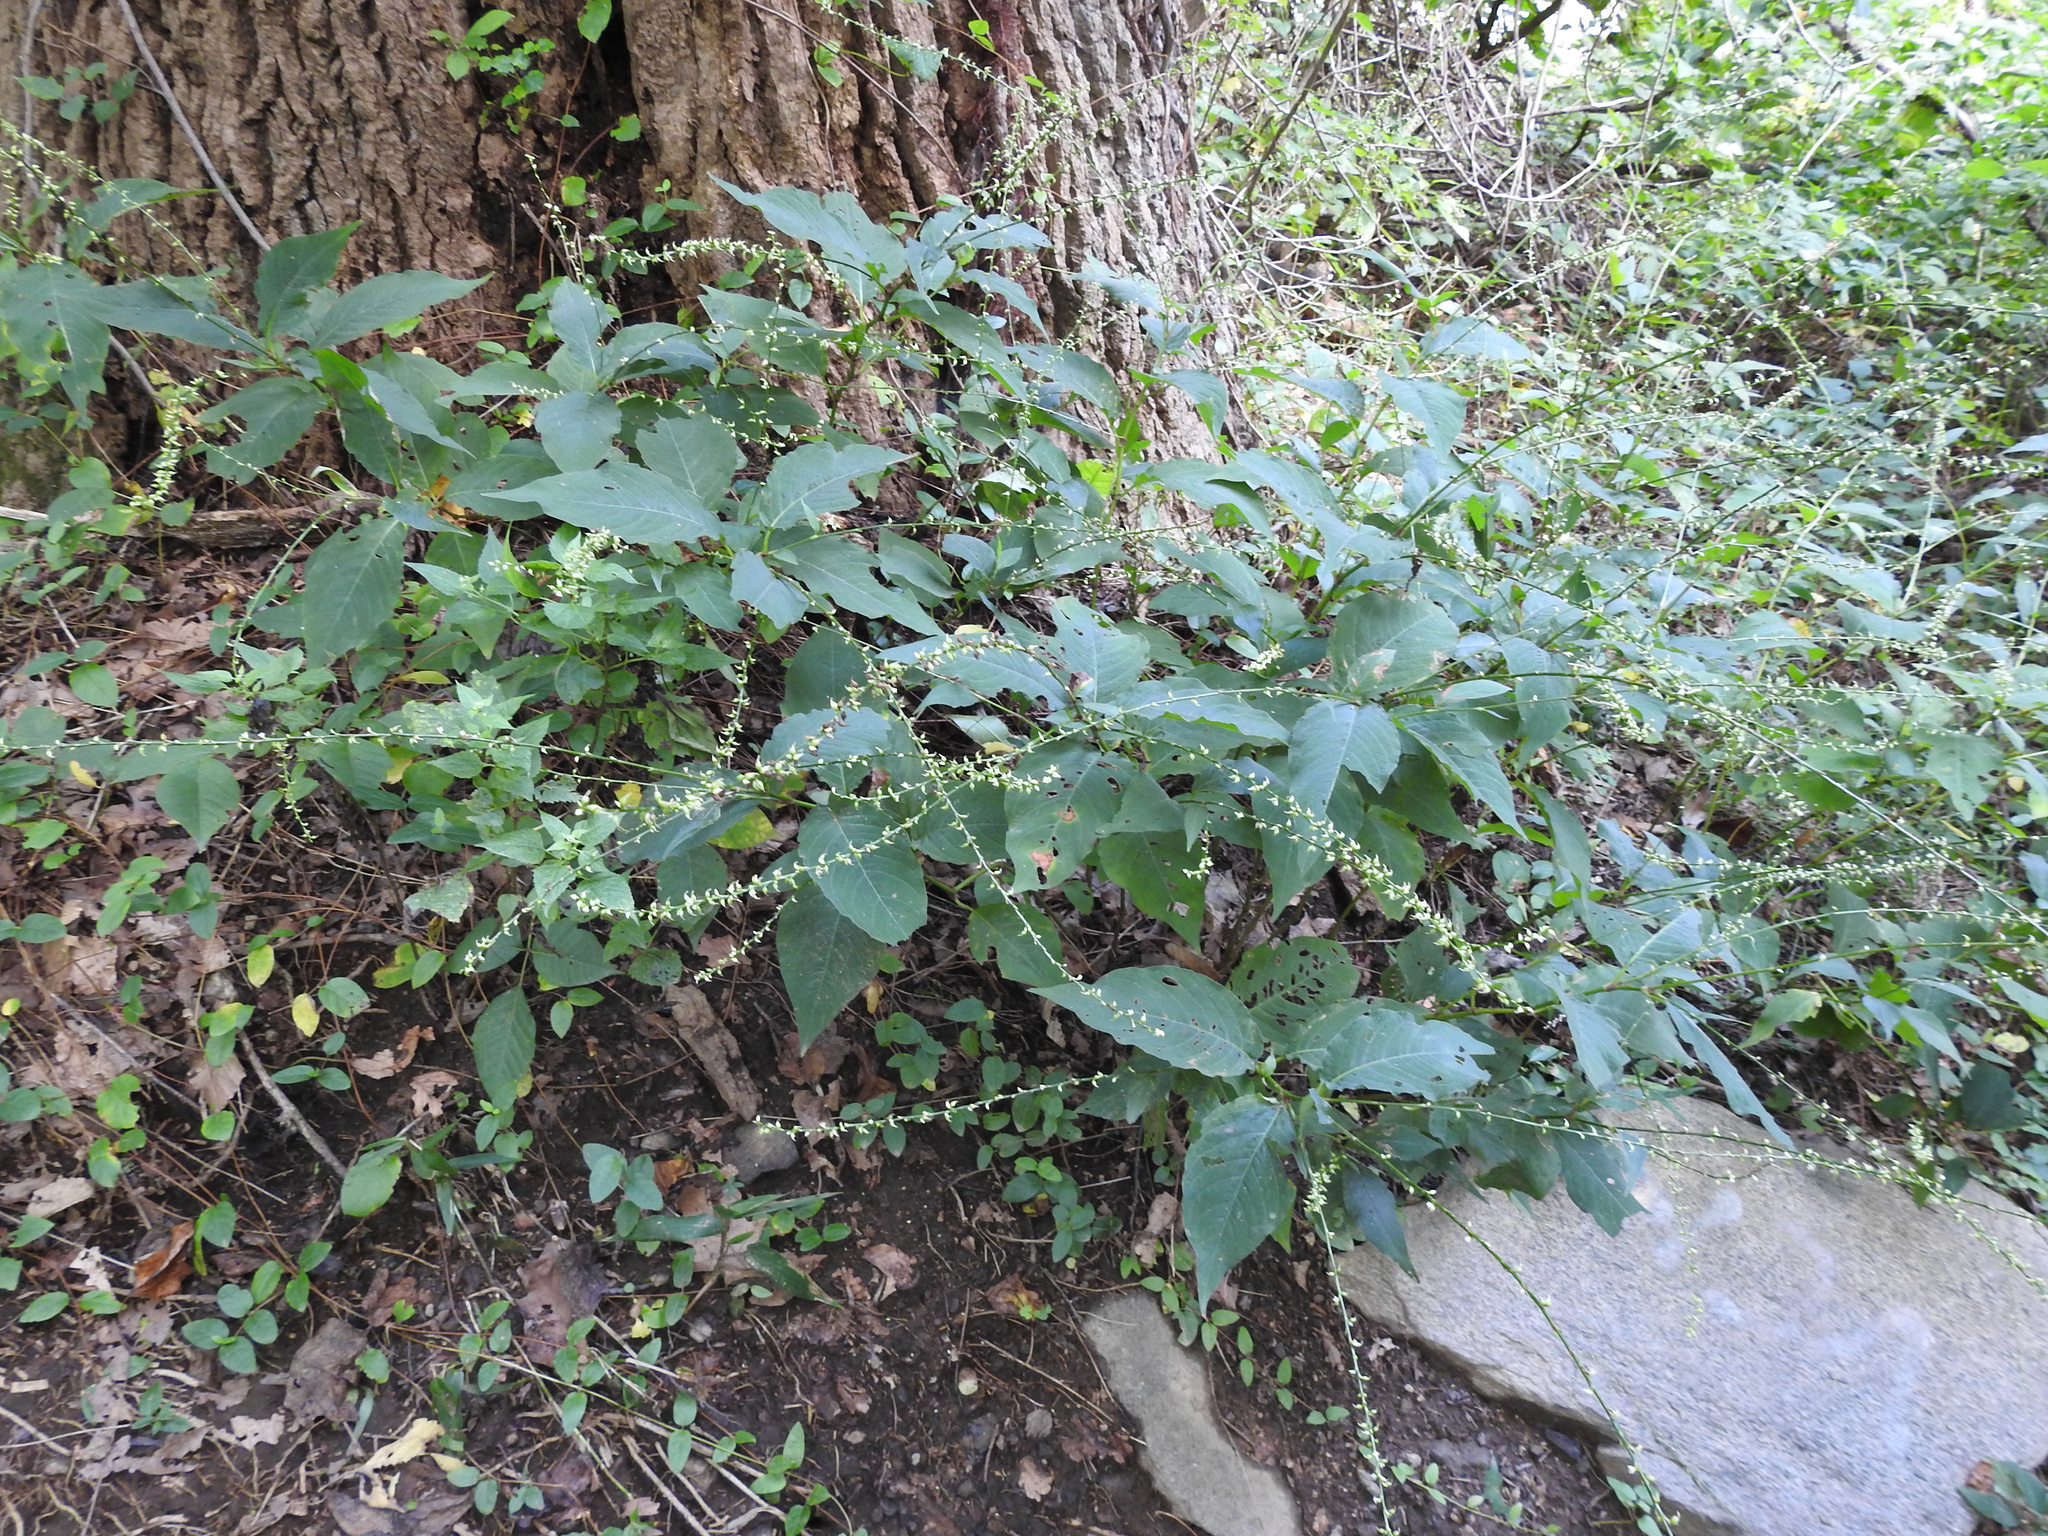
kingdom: Plantae
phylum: Tracheophyta
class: Magnoliopsida
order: Caryophyllales
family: Polygonaceae
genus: Persicaria
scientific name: Persicaria virginiana
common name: Jumpseed
